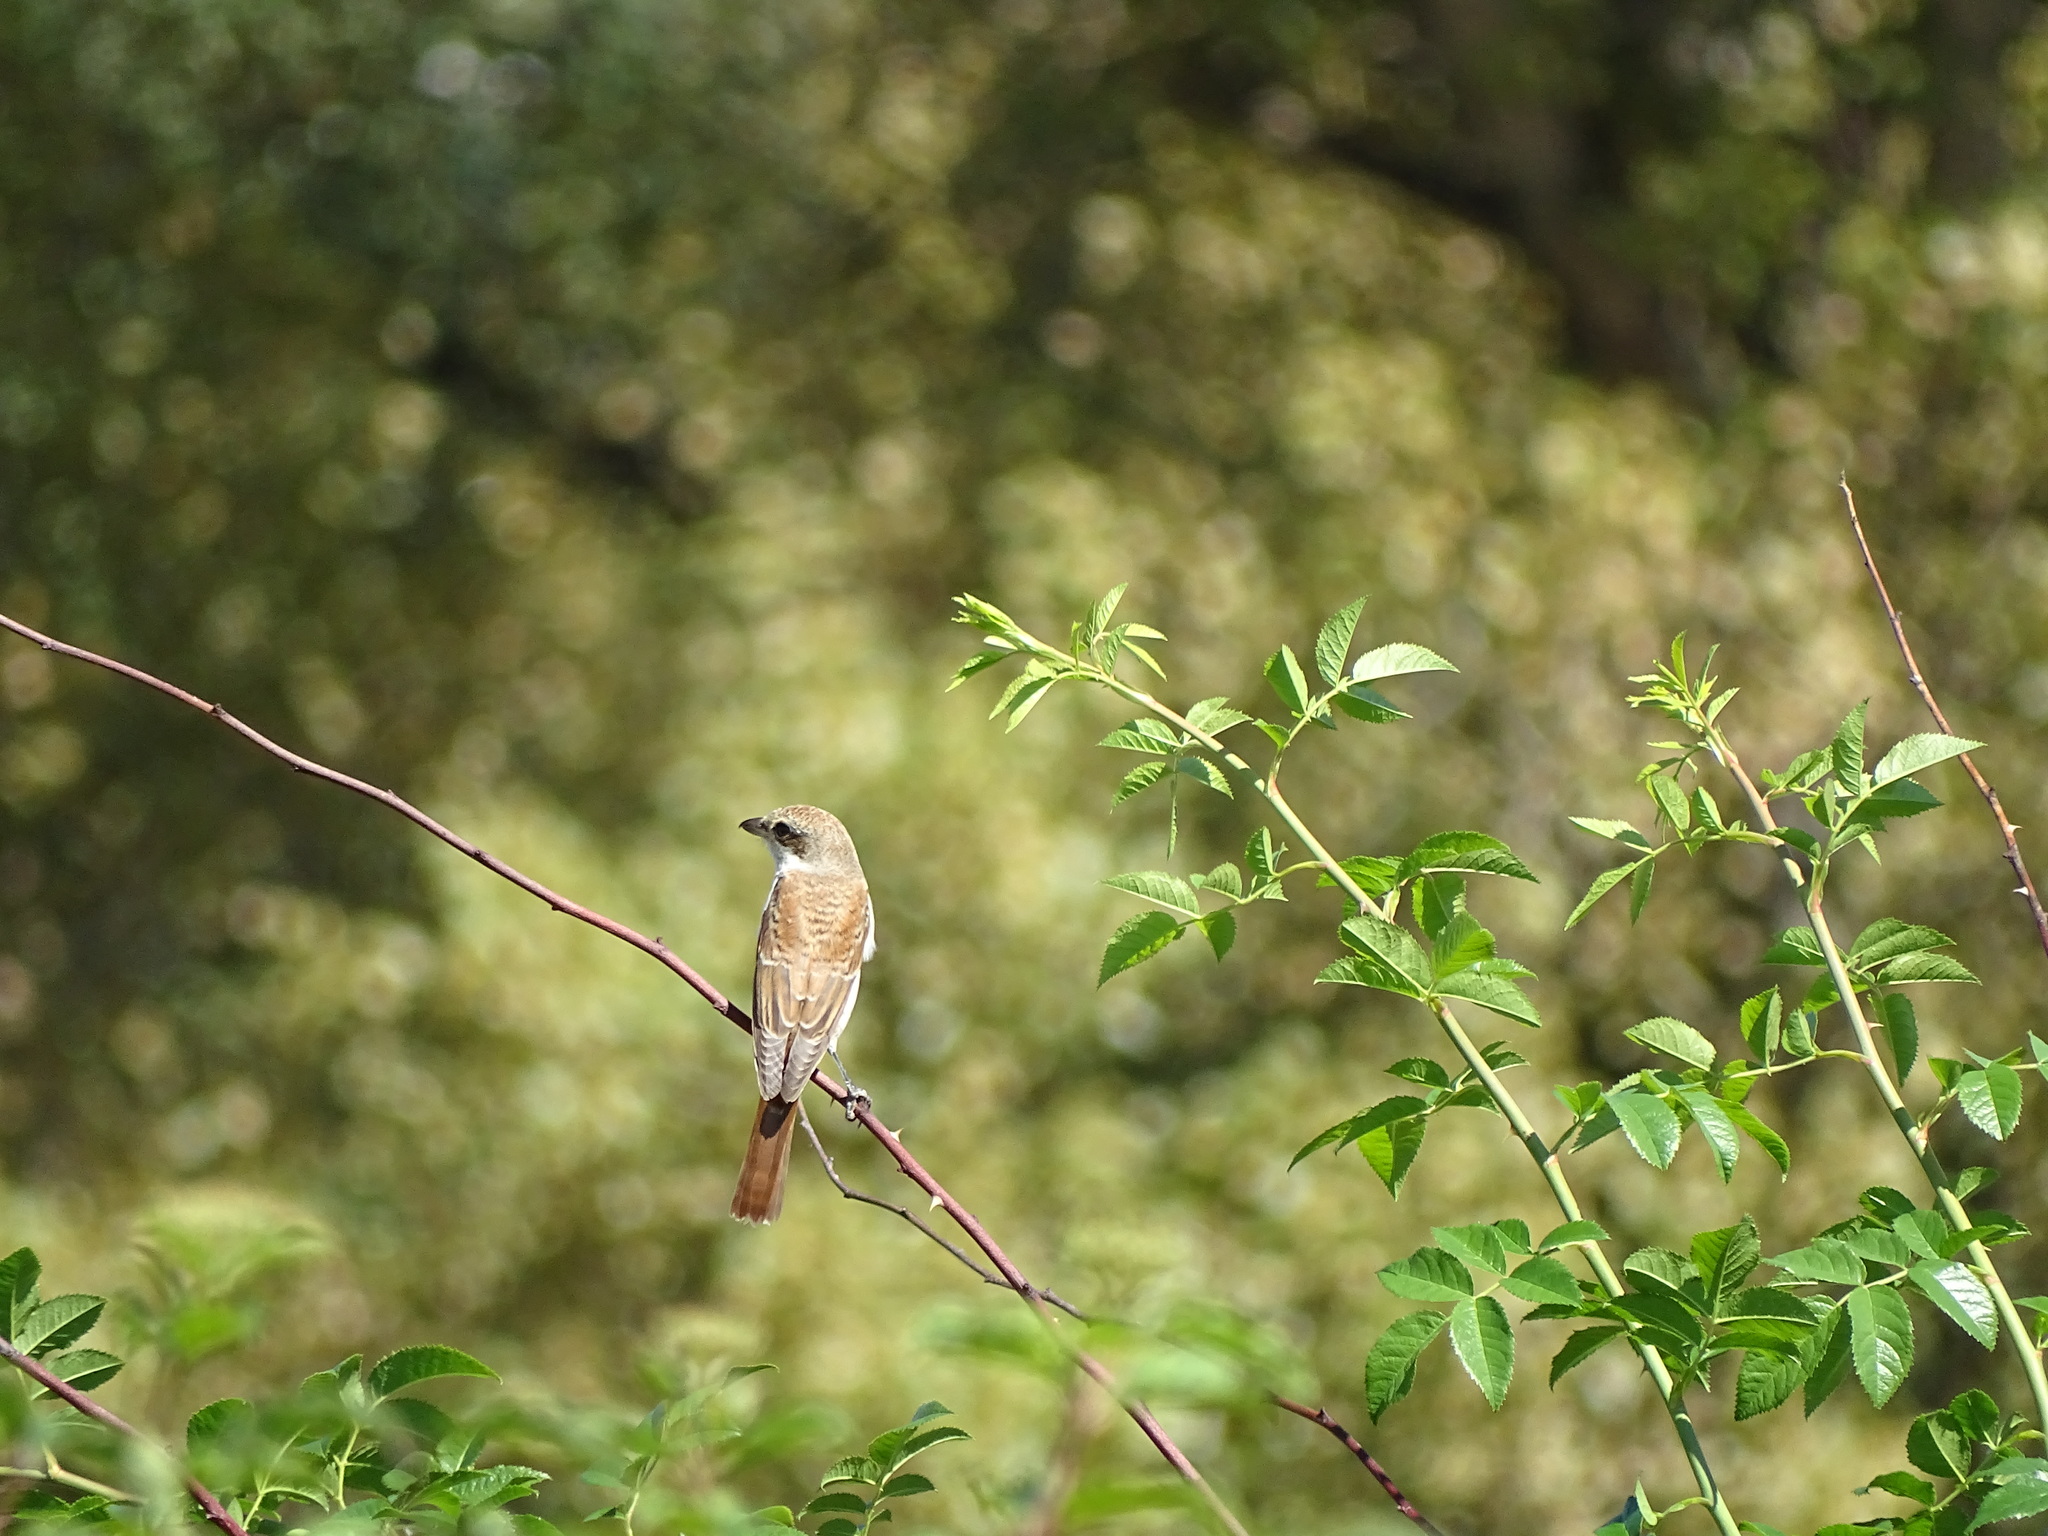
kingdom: Animalia
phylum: Chordata
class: Aves
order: Passeriformes
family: Laniidae
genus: Lanius
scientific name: Lanius collurio
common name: Red-backed shrike
